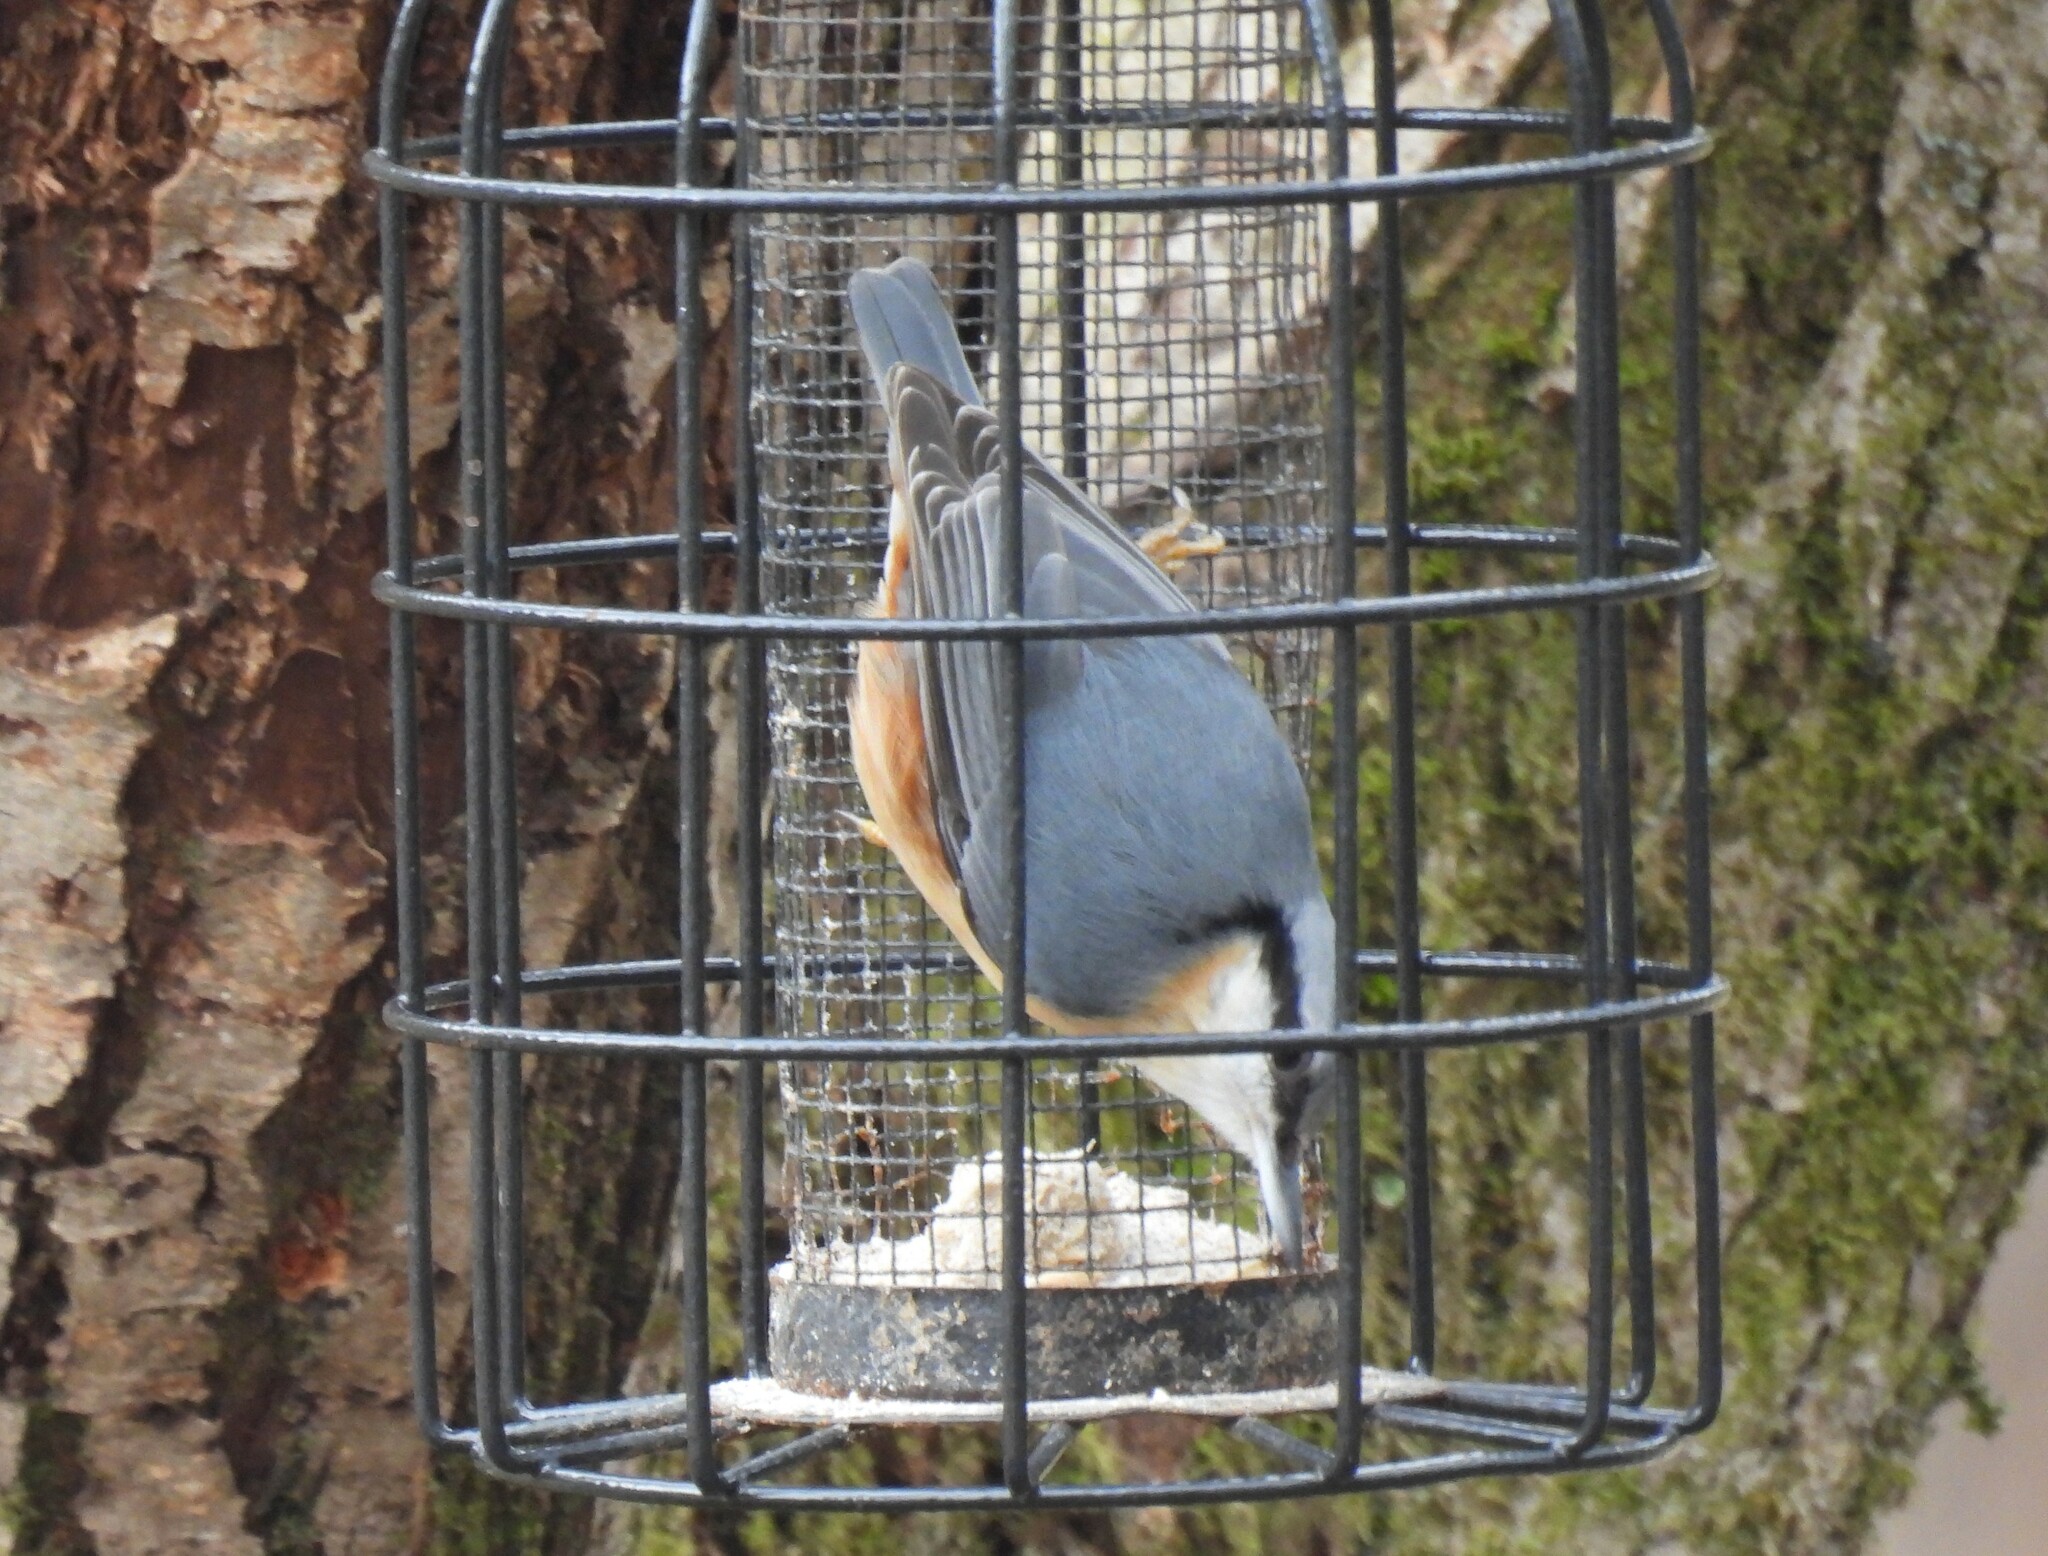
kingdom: Animalia
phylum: Chordata
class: Aves
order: Passeriformes
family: Sittidae
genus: Sitta
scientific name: Sitta europaea
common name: Eurasian nuthatch
